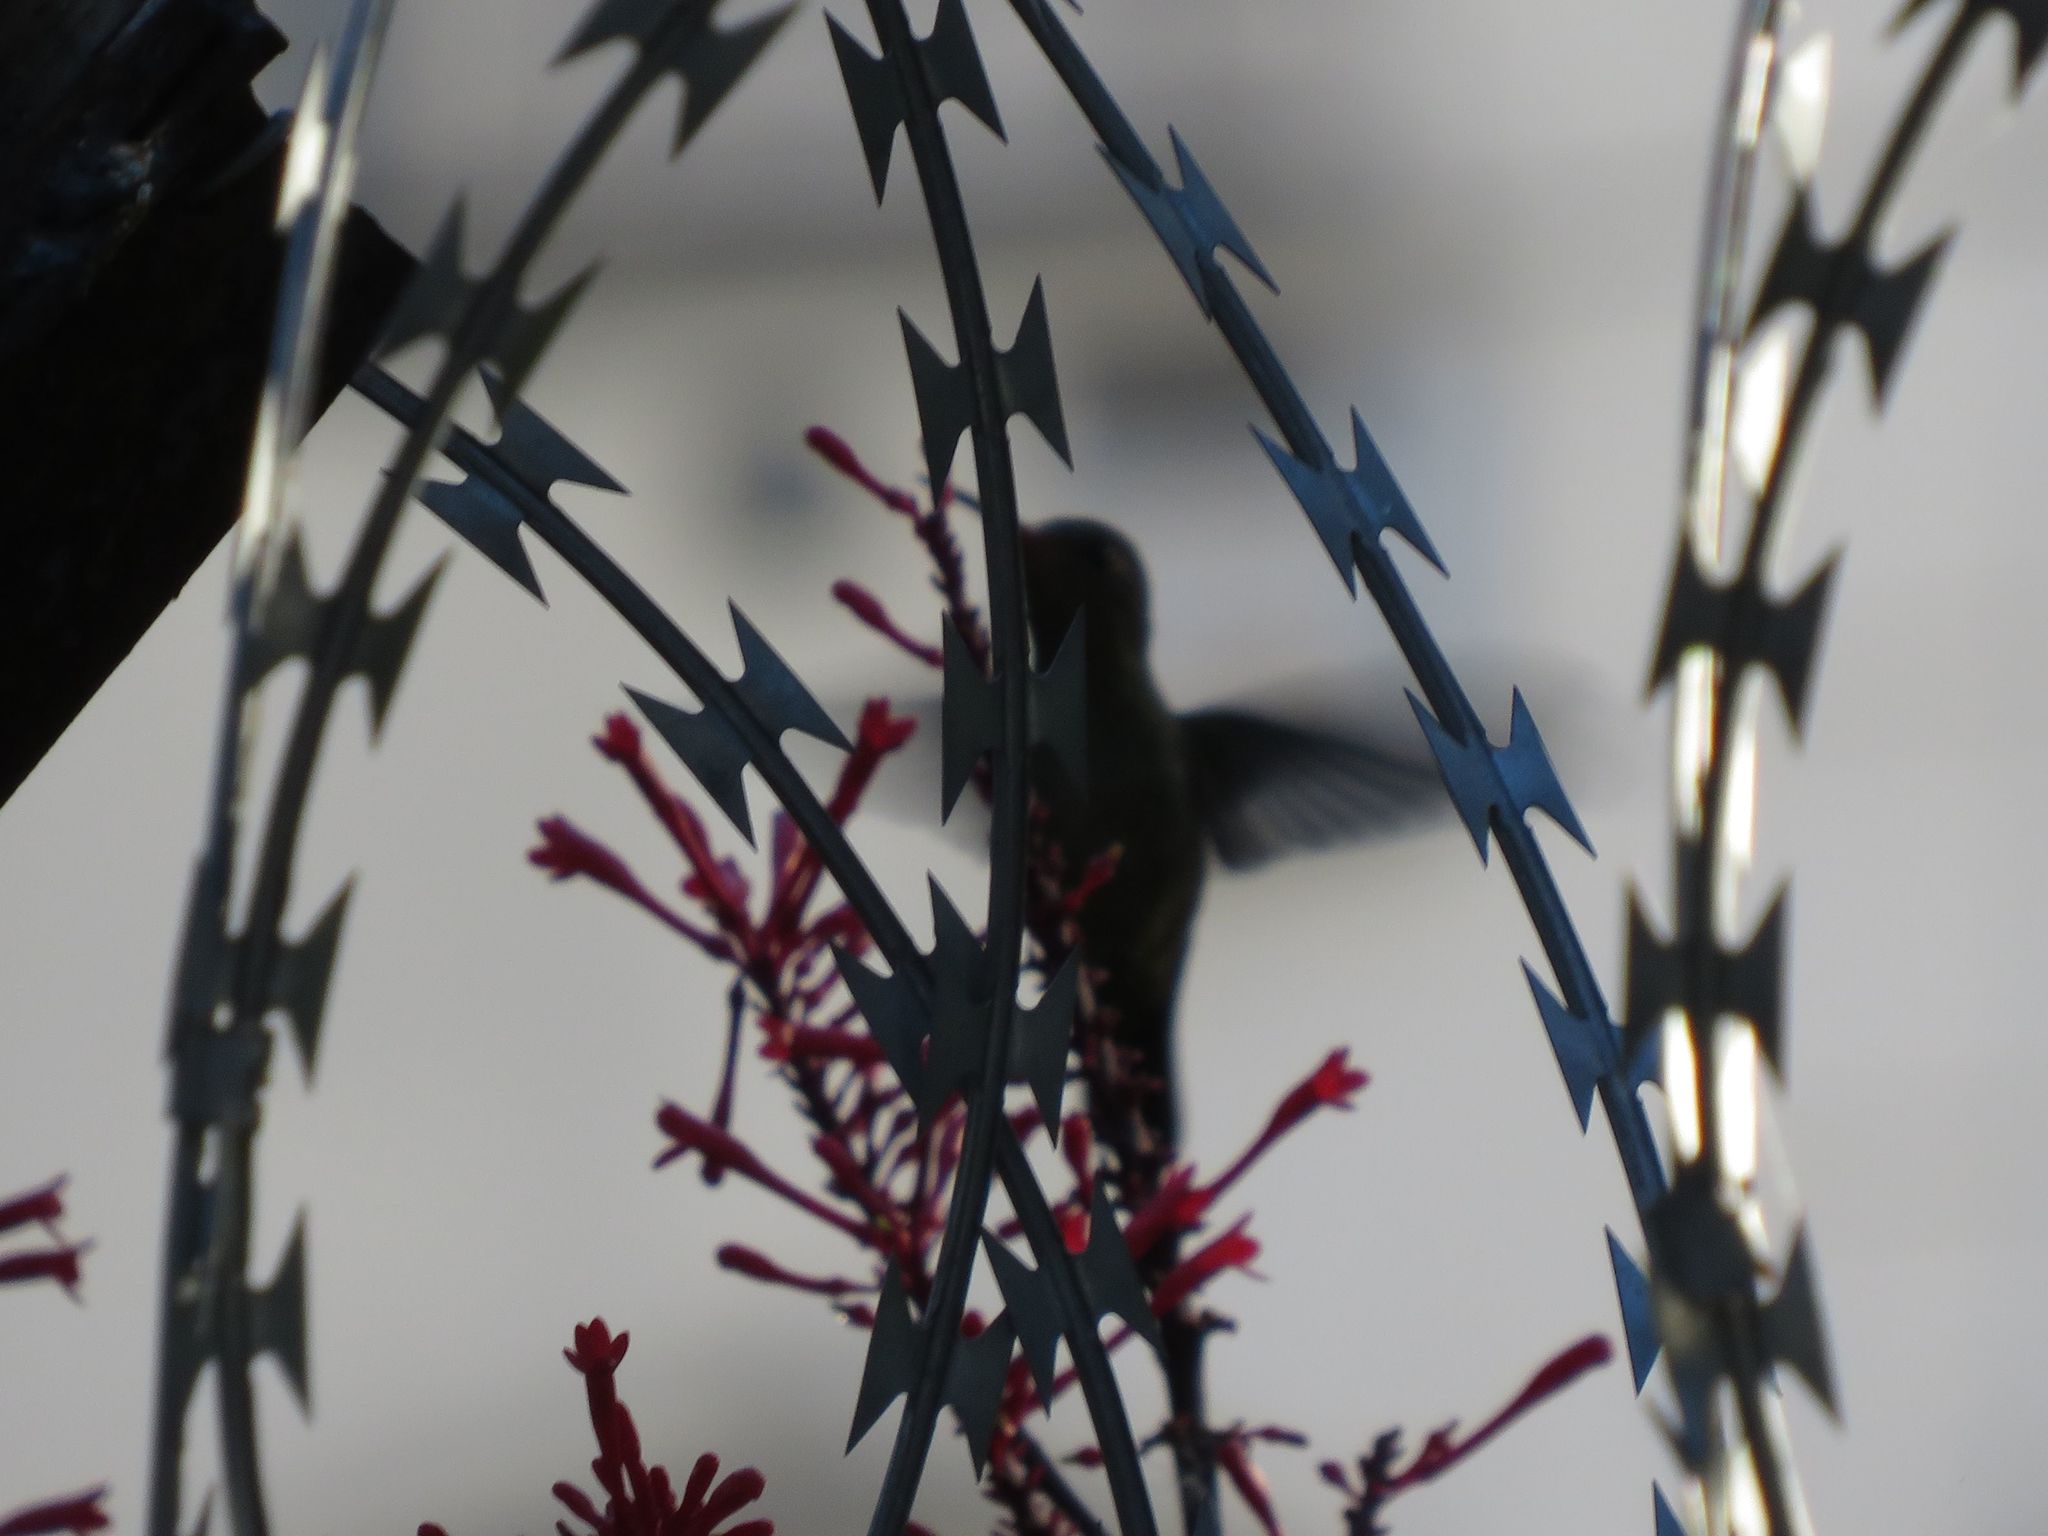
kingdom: Animalia
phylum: Chordata
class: Aves
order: Apodiformes
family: Trochilidae
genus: Chlorostilbon
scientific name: Chlorostilbon lucidus
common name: Glittering-bellied emerald
